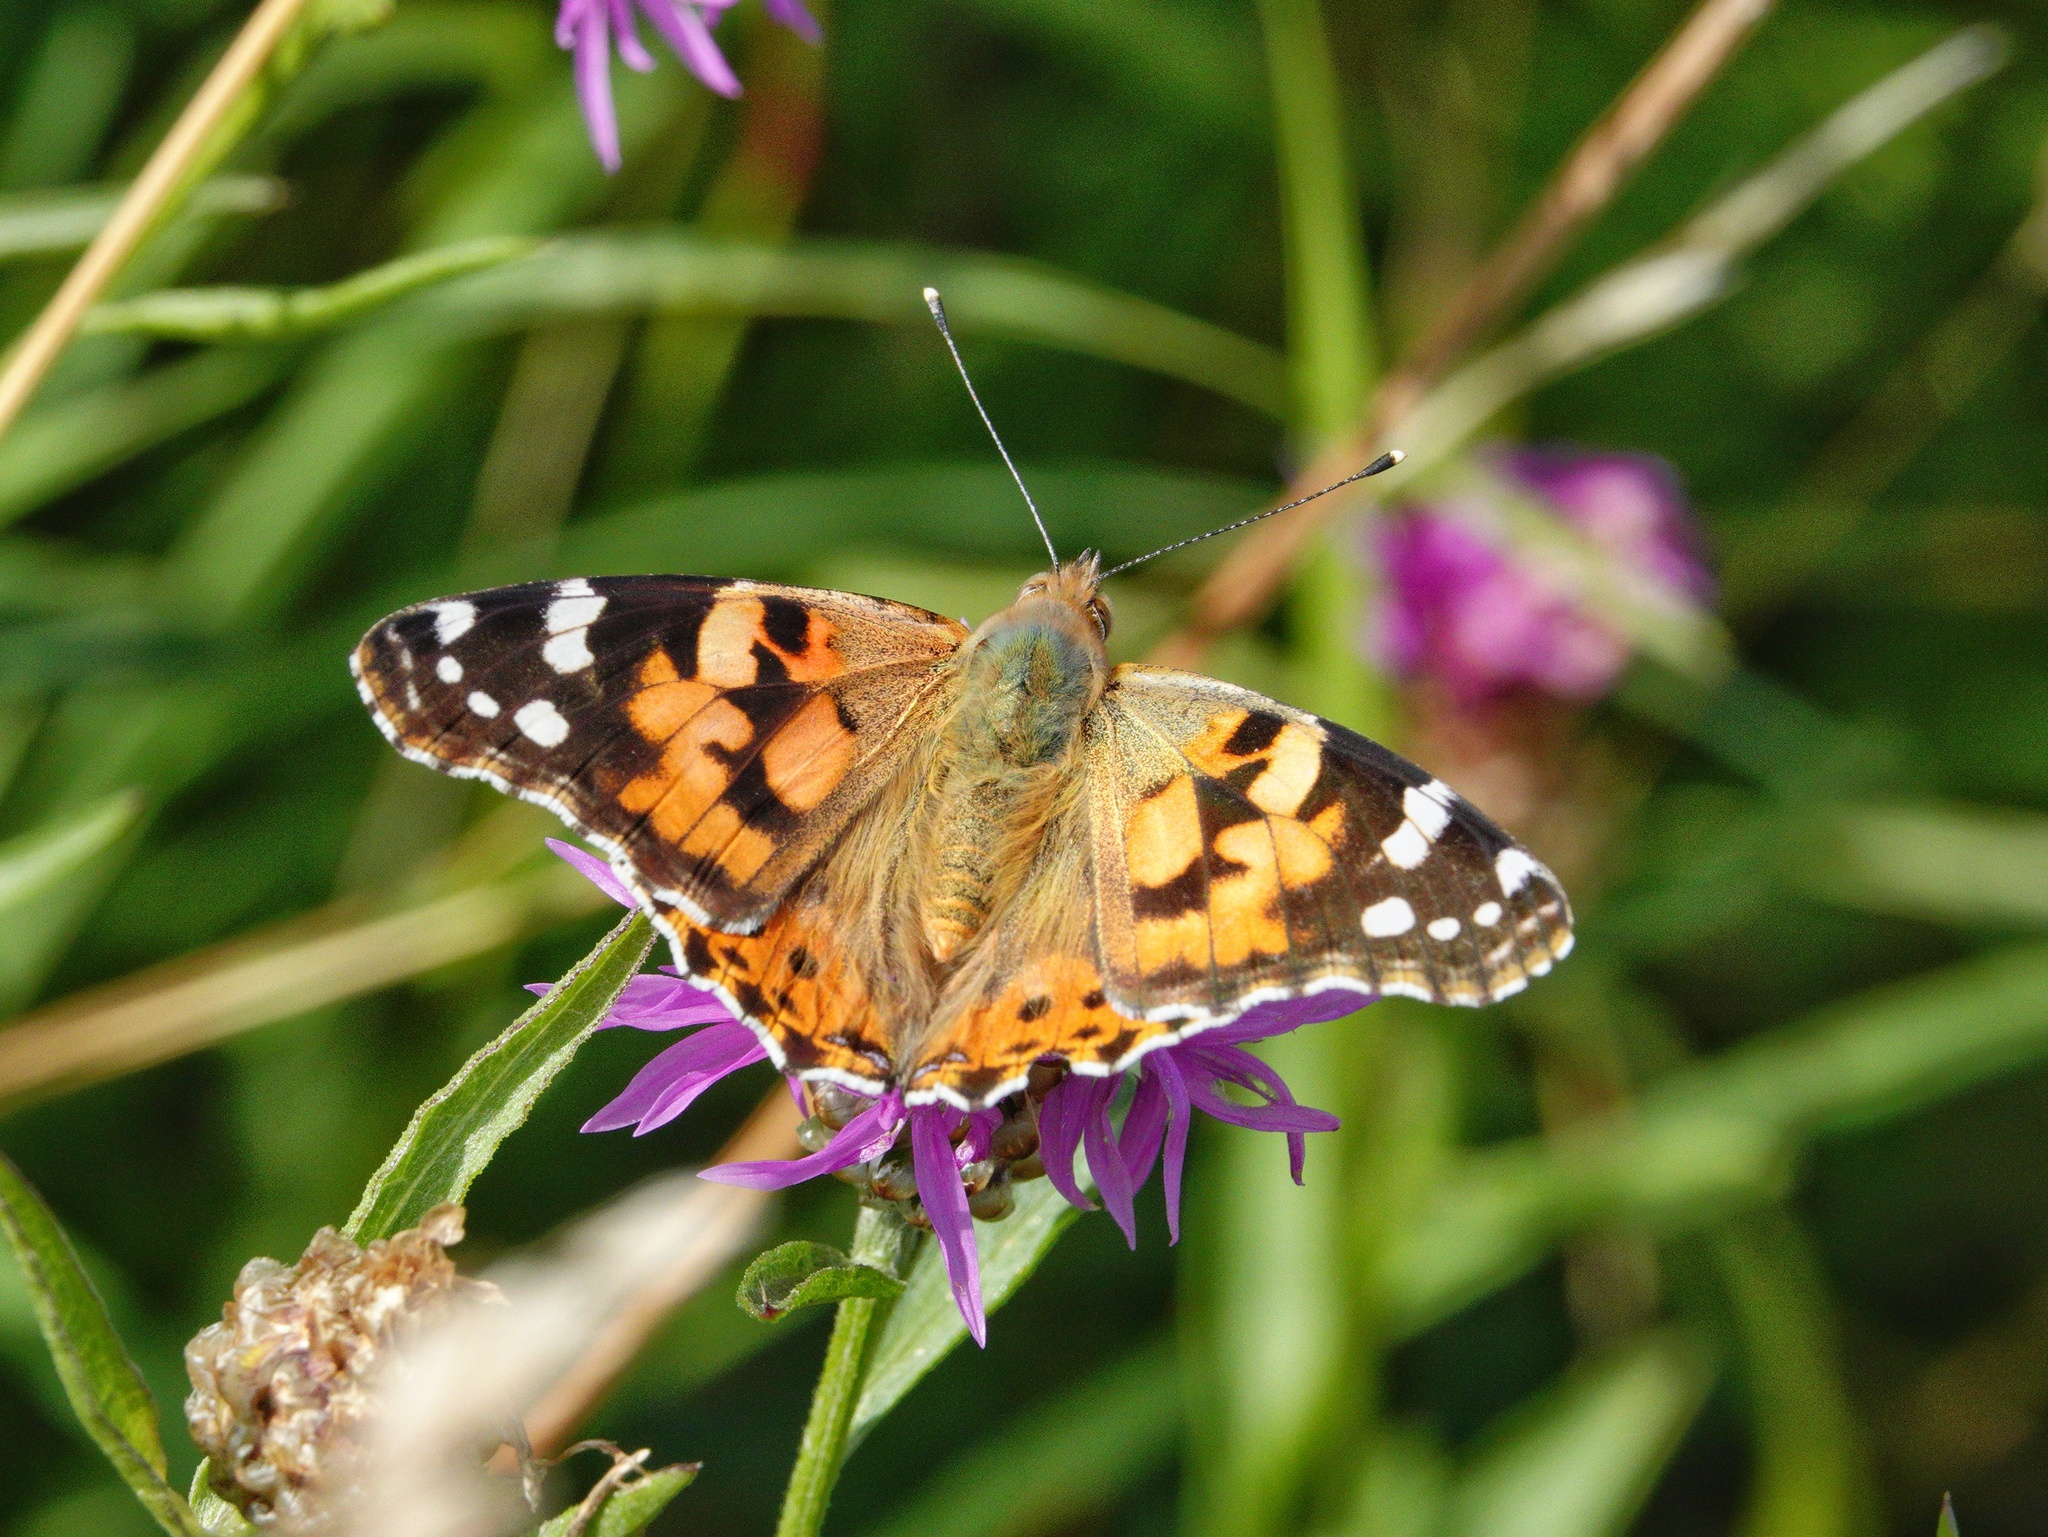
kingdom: Animalia
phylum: Arthropoda
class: Insecta
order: Lepidoptera
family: Nymphalidae
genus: Vanessa
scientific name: Vanessa cardui
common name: Painted lady
